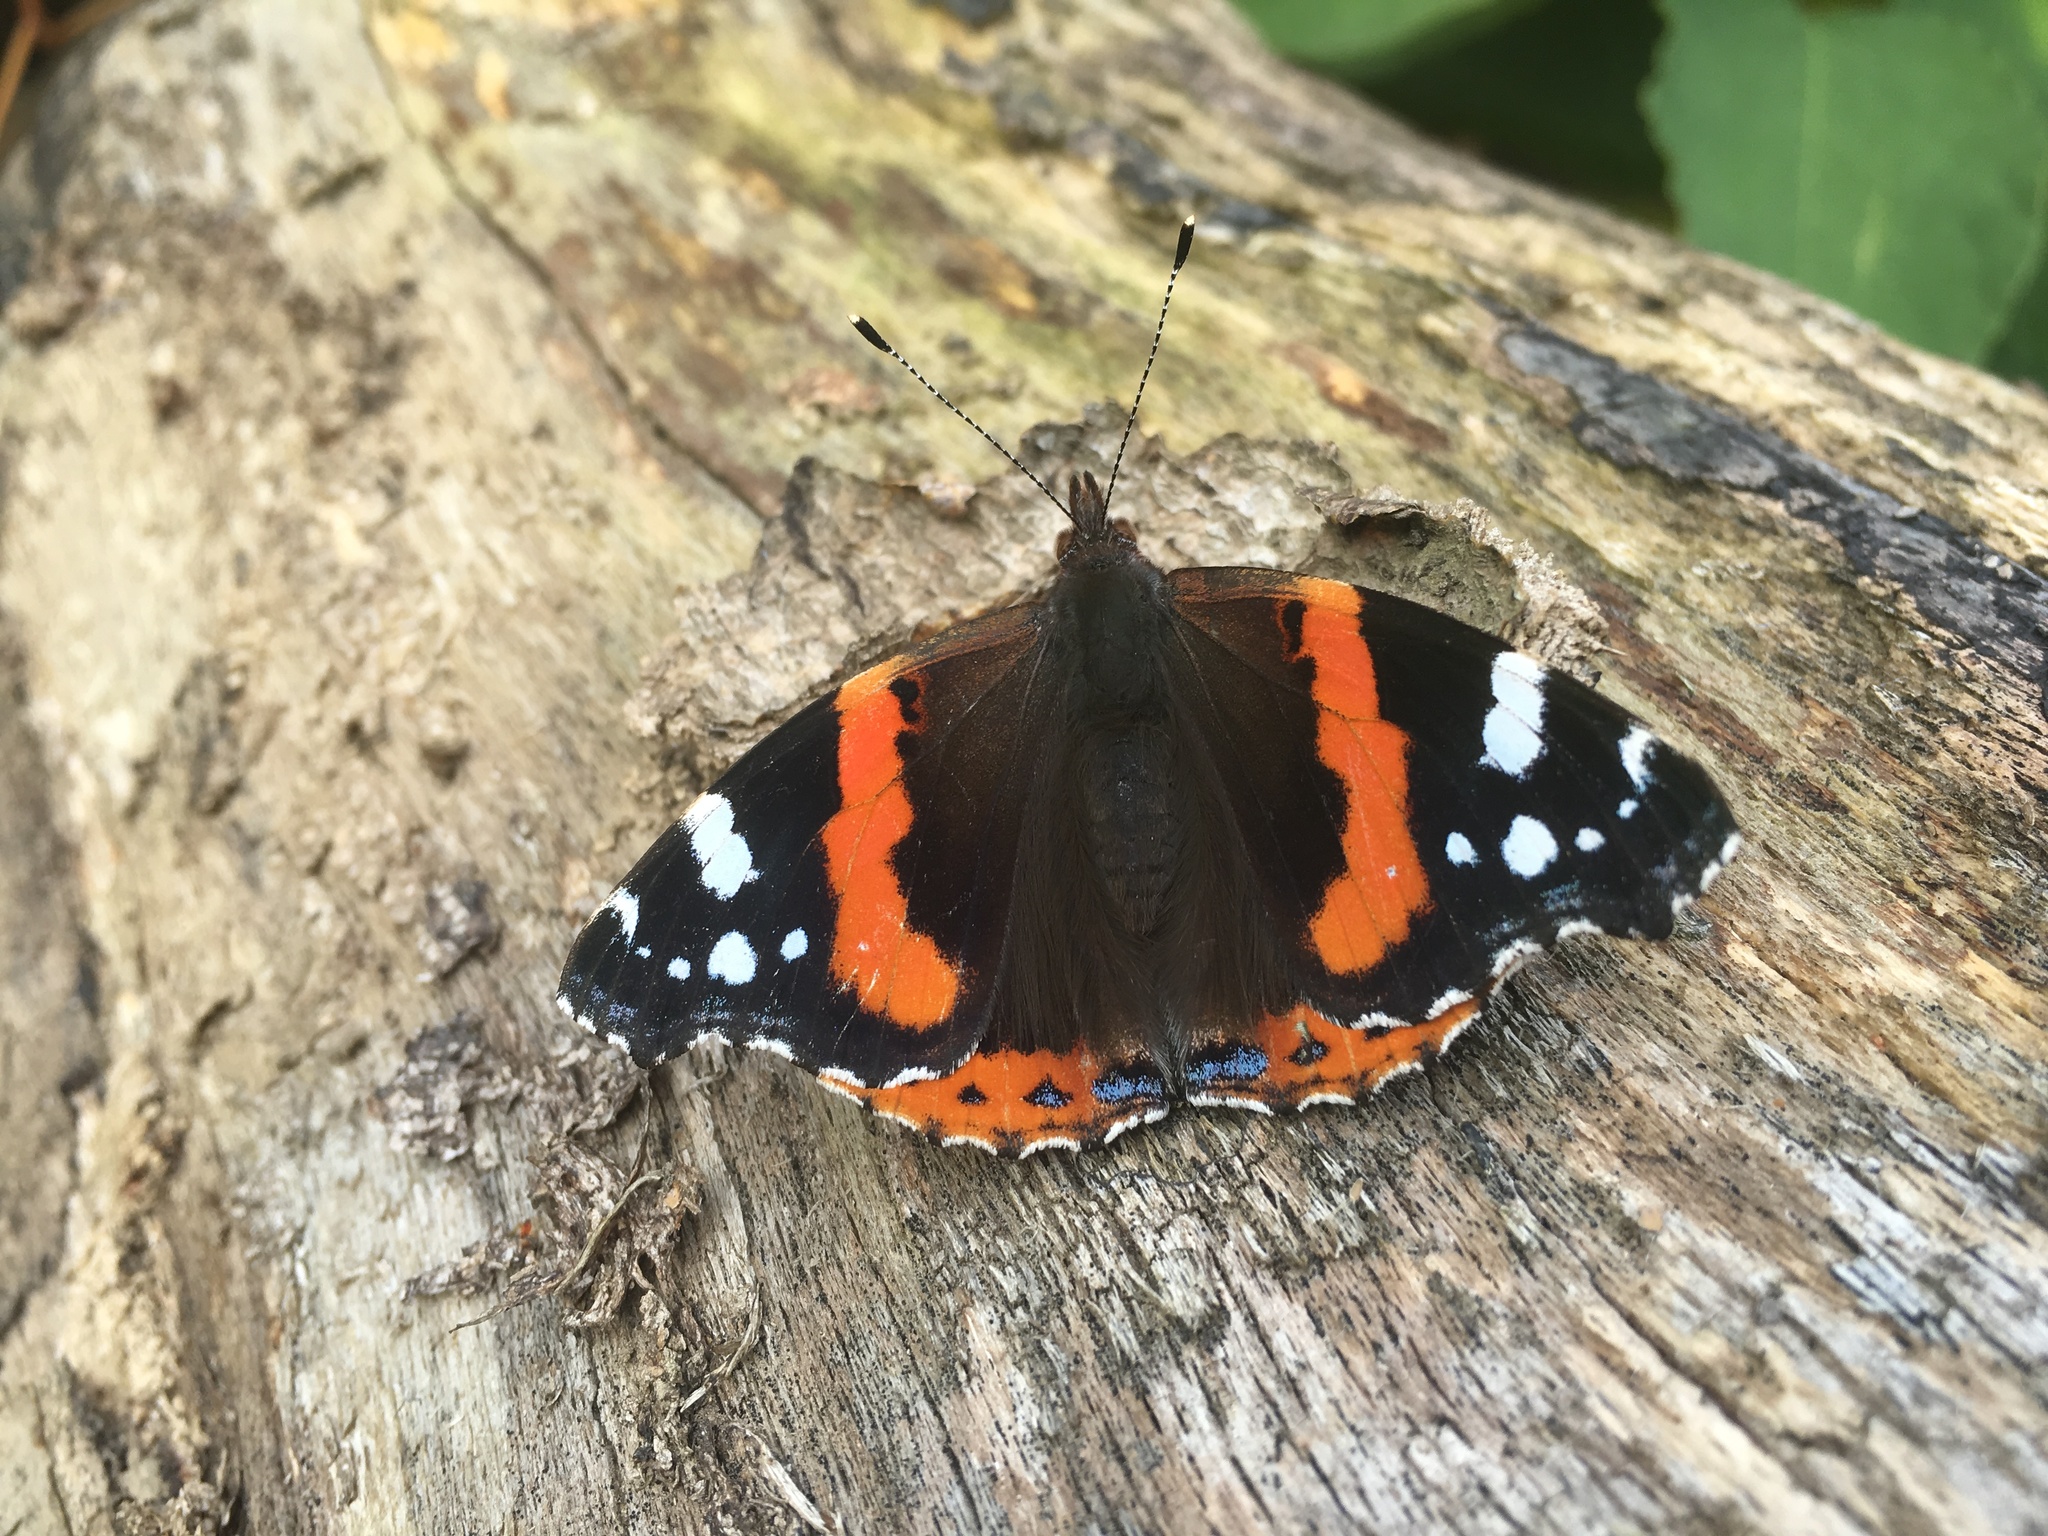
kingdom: Animalia
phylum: Arthropoda
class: Insecta
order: Lepidoptera
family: Nymphalidae
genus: Vanessa
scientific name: Vanessa atalanta
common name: Red admiral
